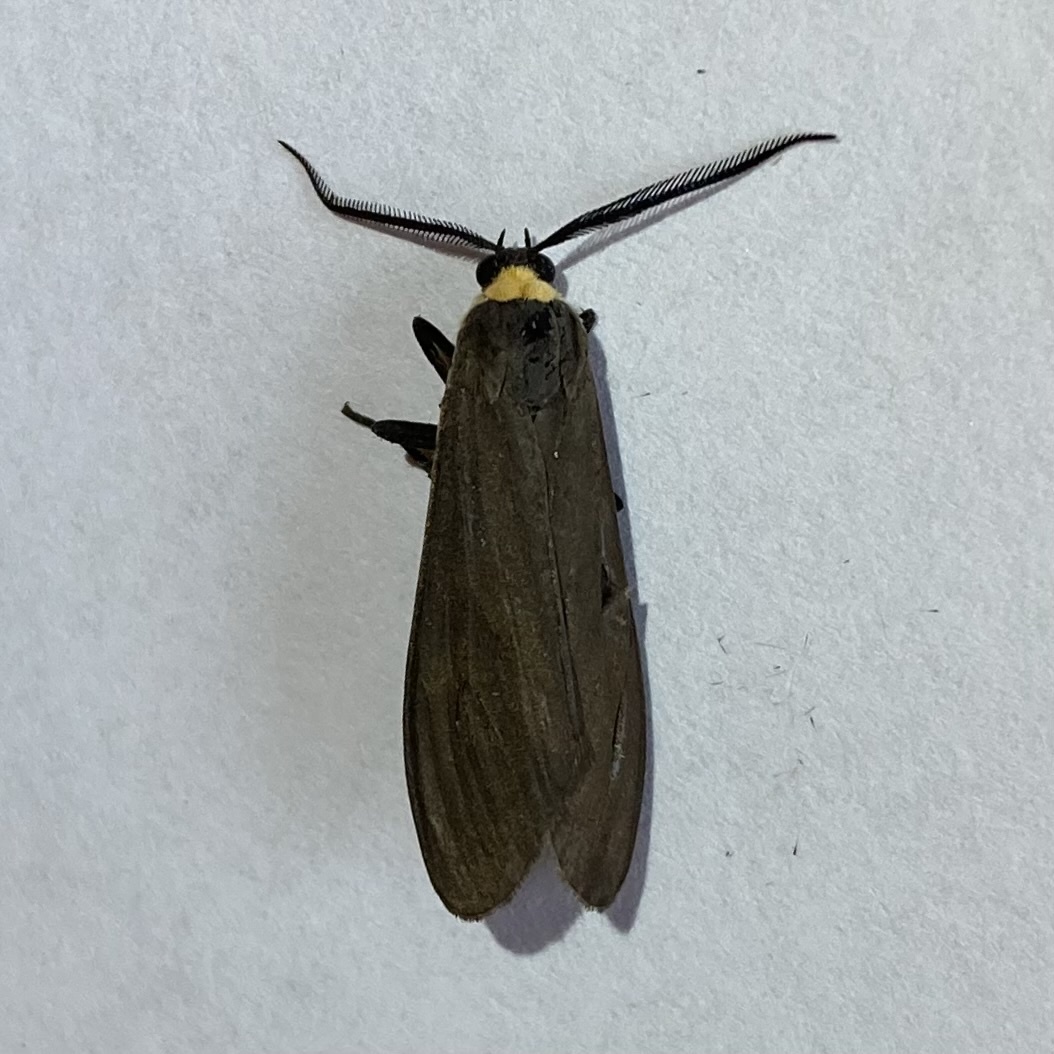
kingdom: Animalia
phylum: Arthropoda
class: Insecta
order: Lepidoptera
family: Erebidae
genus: Cisseps
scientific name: Cisseps fulvicollis
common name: Yellow-collared scape moth
